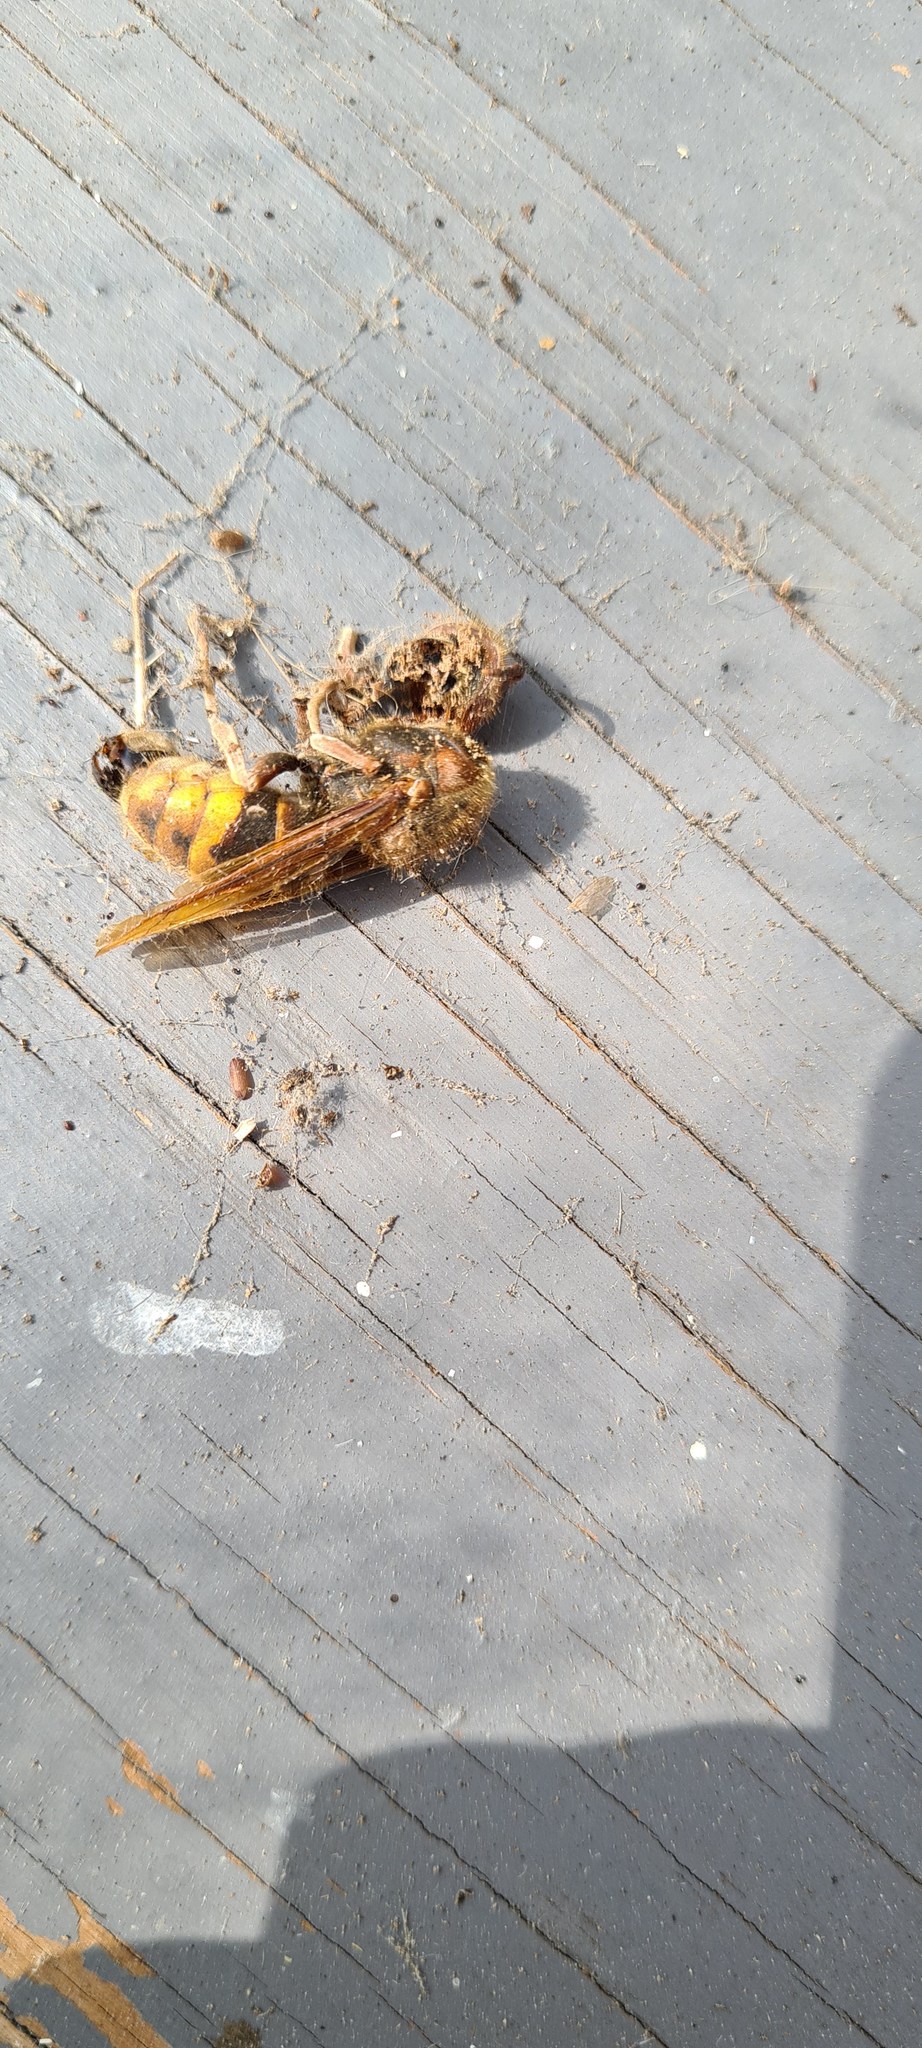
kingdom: Animalia
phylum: Arthropoda
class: Insecta
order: Hymenoptera
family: Vespidae
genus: Vespa
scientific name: Vespa crabro
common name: Hornet
